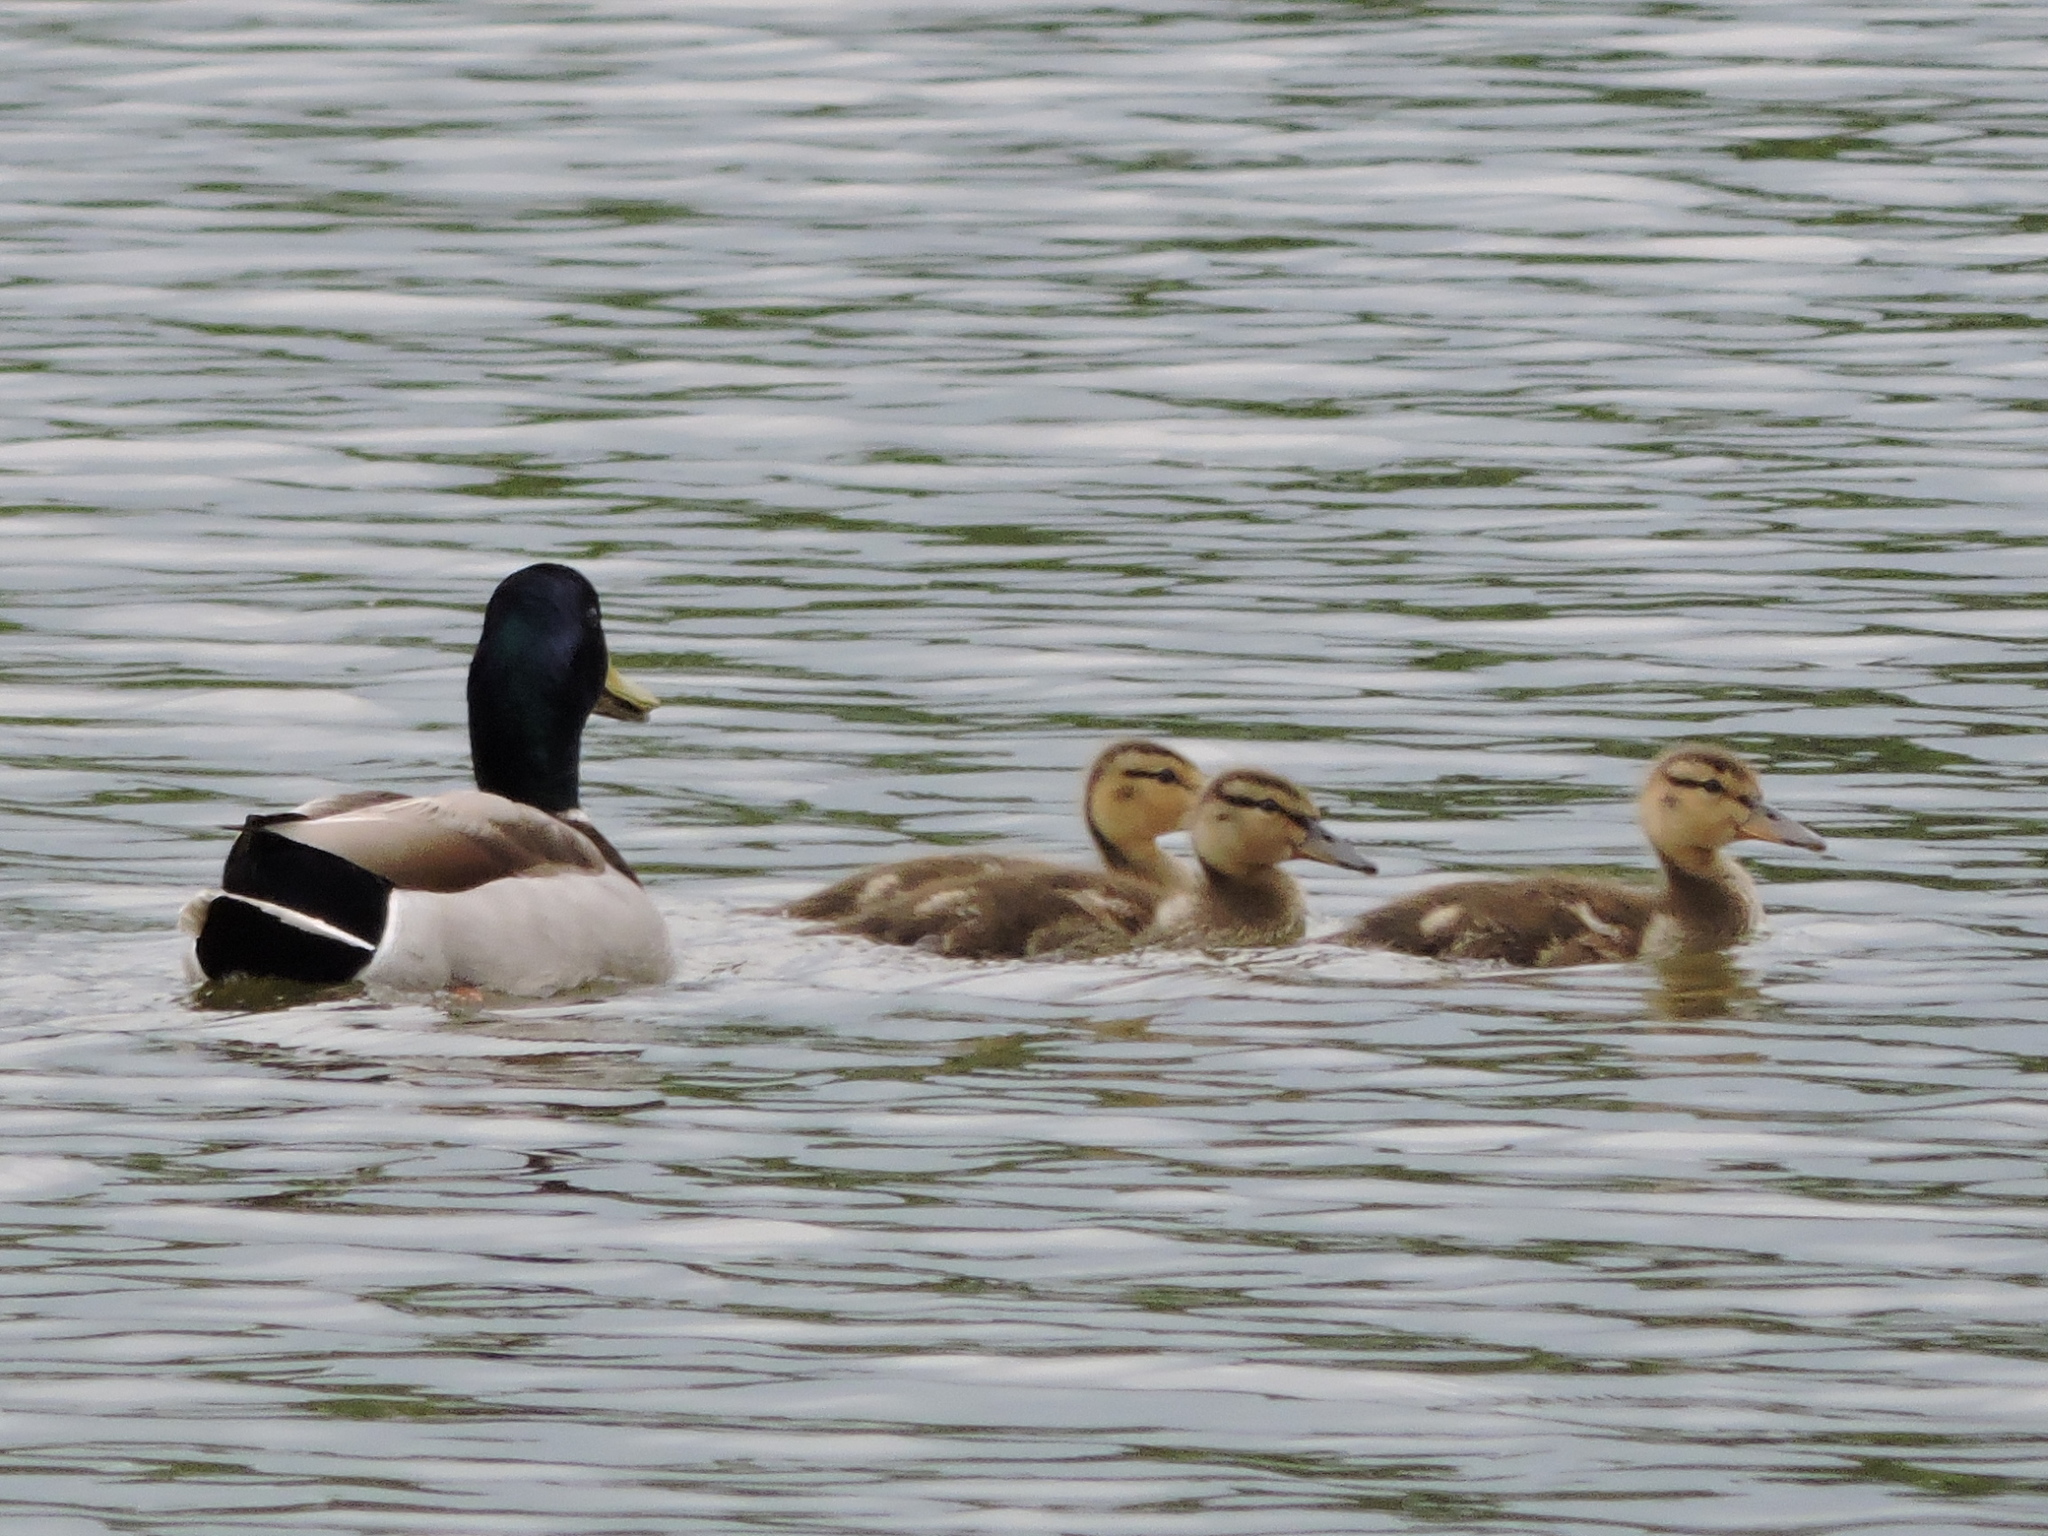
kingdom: Animalia
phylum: Chordata
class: Aves
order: Anseriformes
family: Anatidae
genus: Anas
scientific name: Anas platyrhynchos
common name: Mallard
